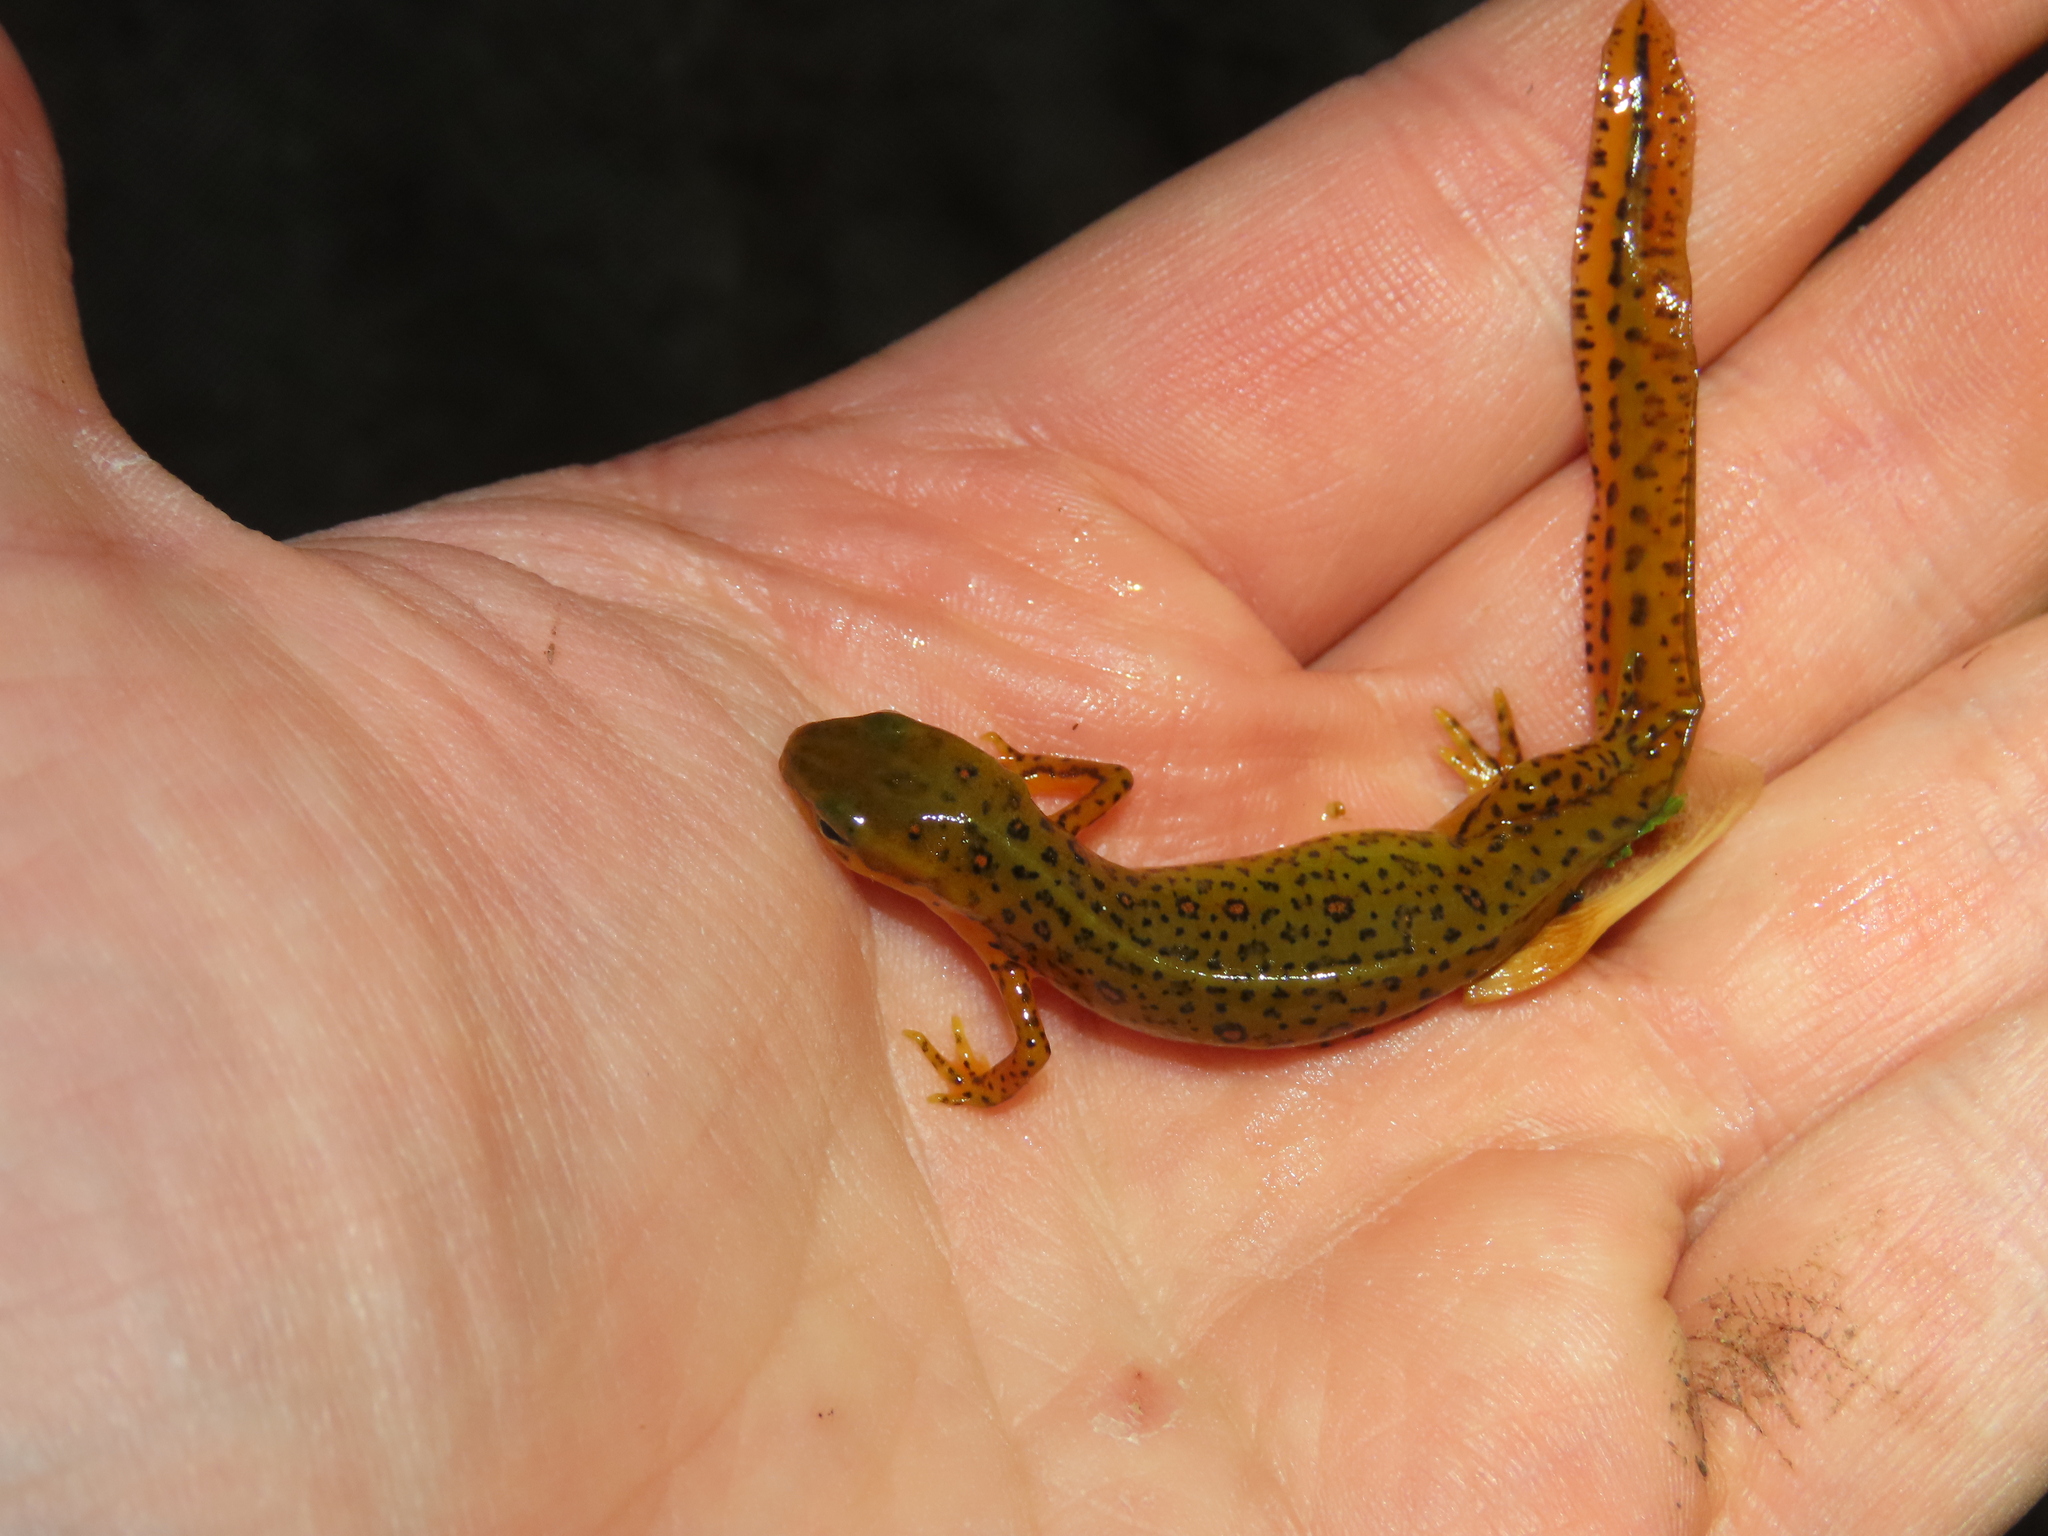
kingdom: Animalia
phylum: Chordata
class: Amphibia
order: Caudata
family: Salamandridae
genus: Notophthalmus
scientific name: Notophthalmus viridescens
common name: Eastern newt
